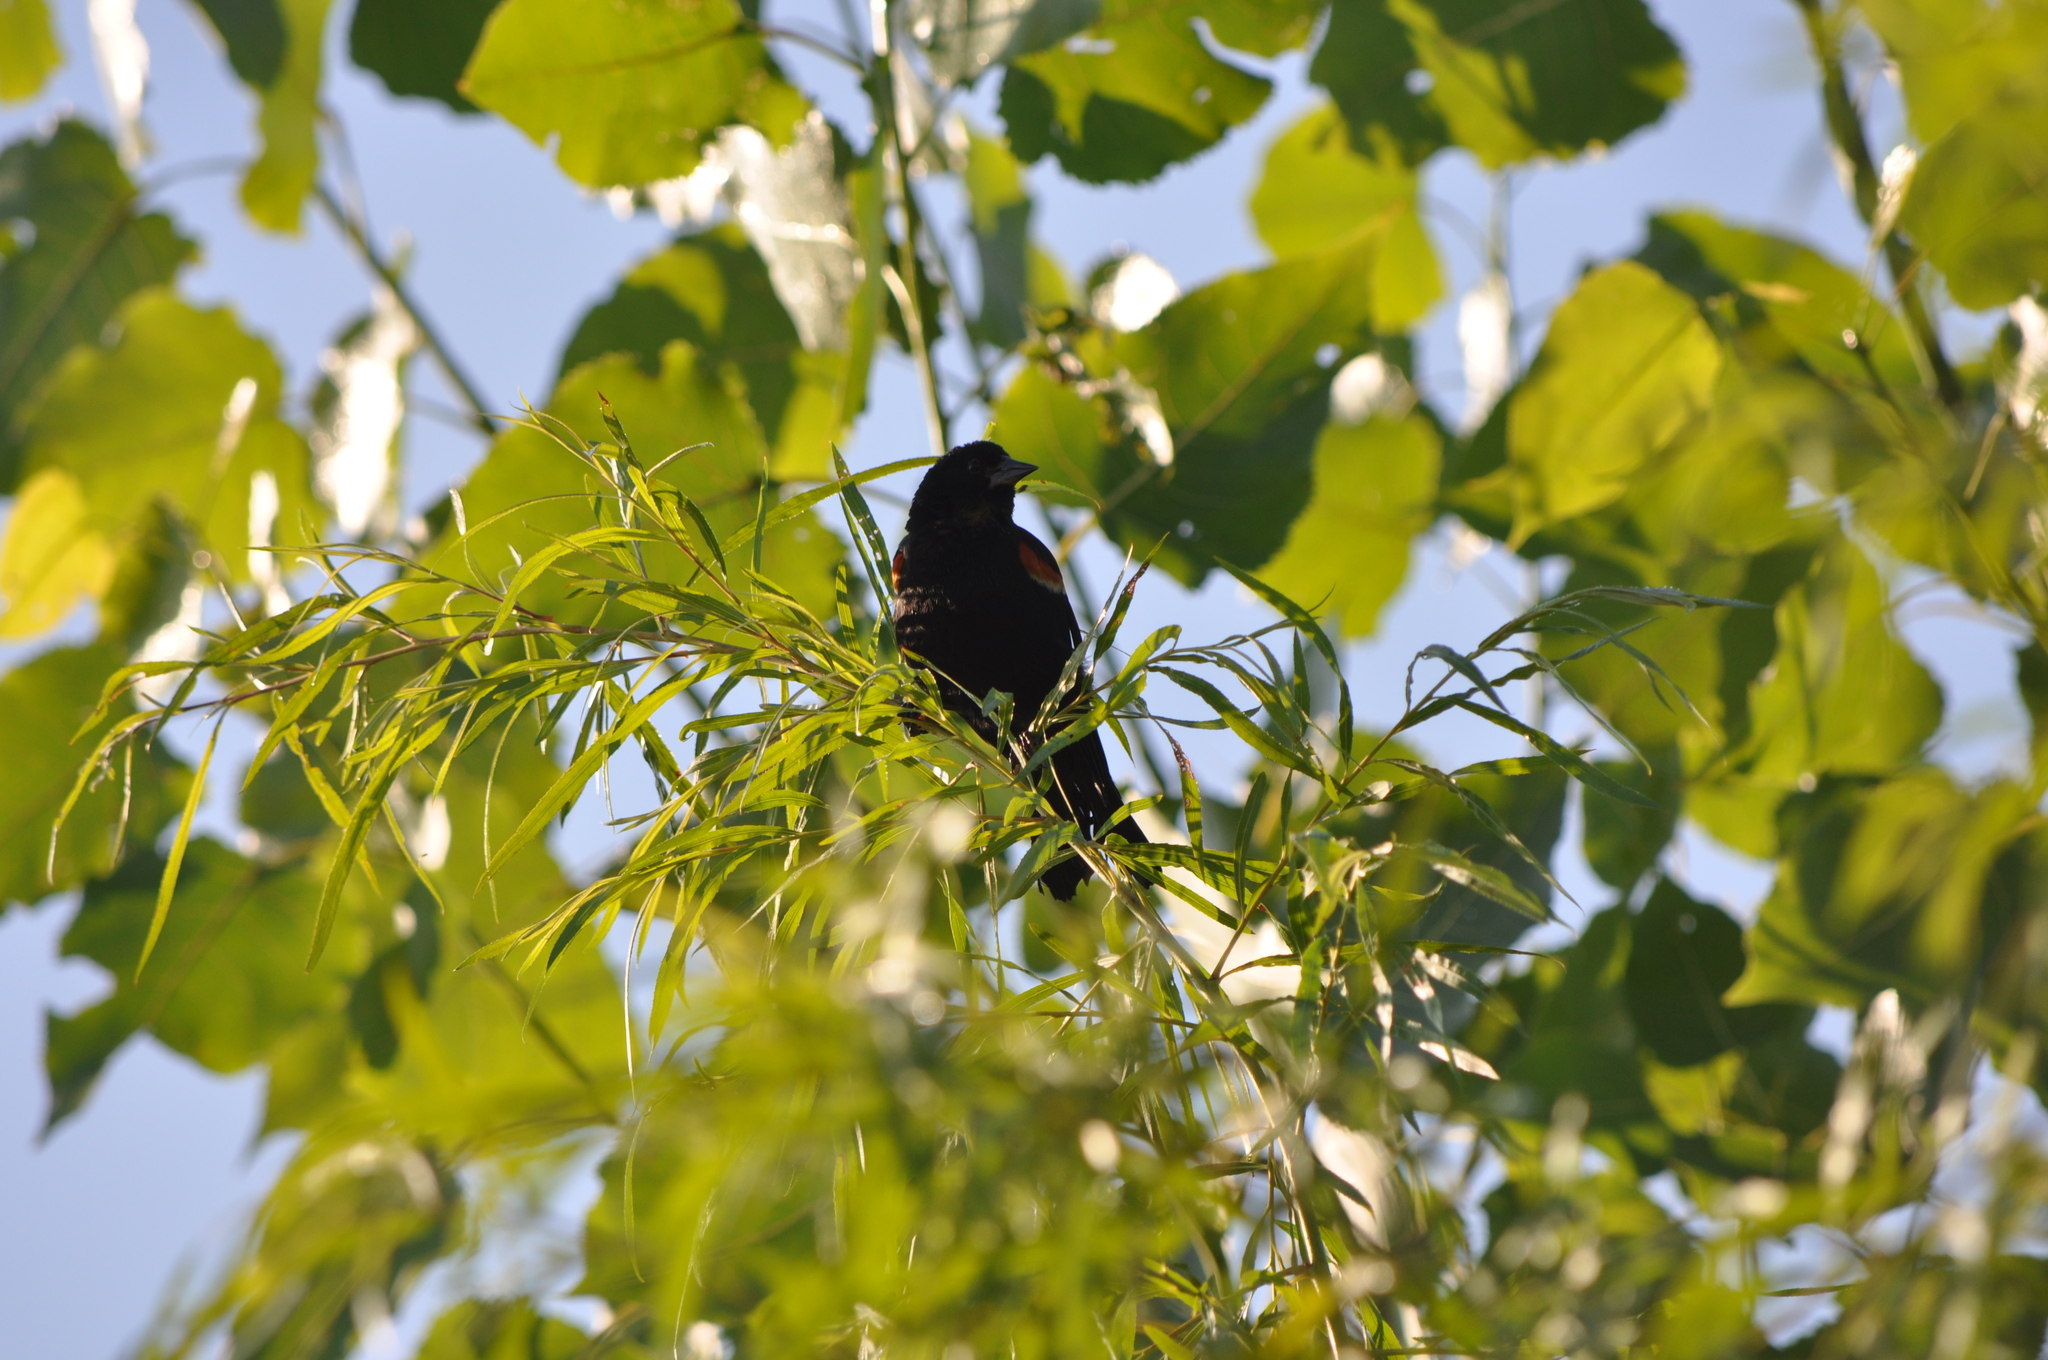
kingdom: Animalia
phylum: Chordata
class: Aves
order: Passeriformes
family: Icteridae
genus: Agelaius
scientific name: Agelaius phoeniceus
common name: Red-winged blackbird
